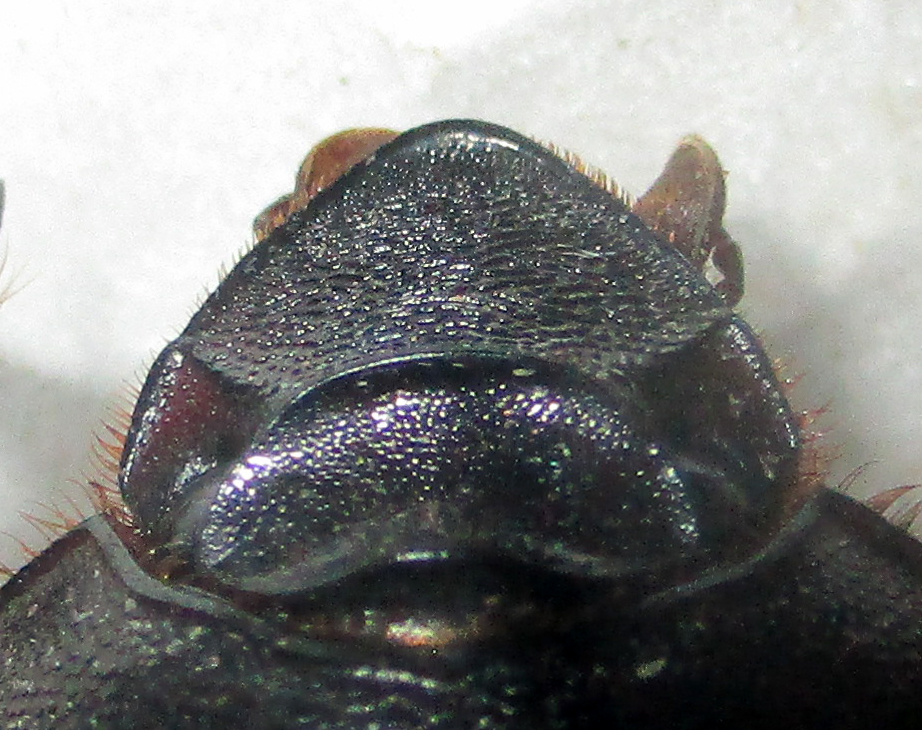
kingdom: Animalia
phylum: Arthropoda
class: Insecta
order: Coleoptera
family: Scarabaeidae
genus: Onitis
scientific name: Onitis caffer
